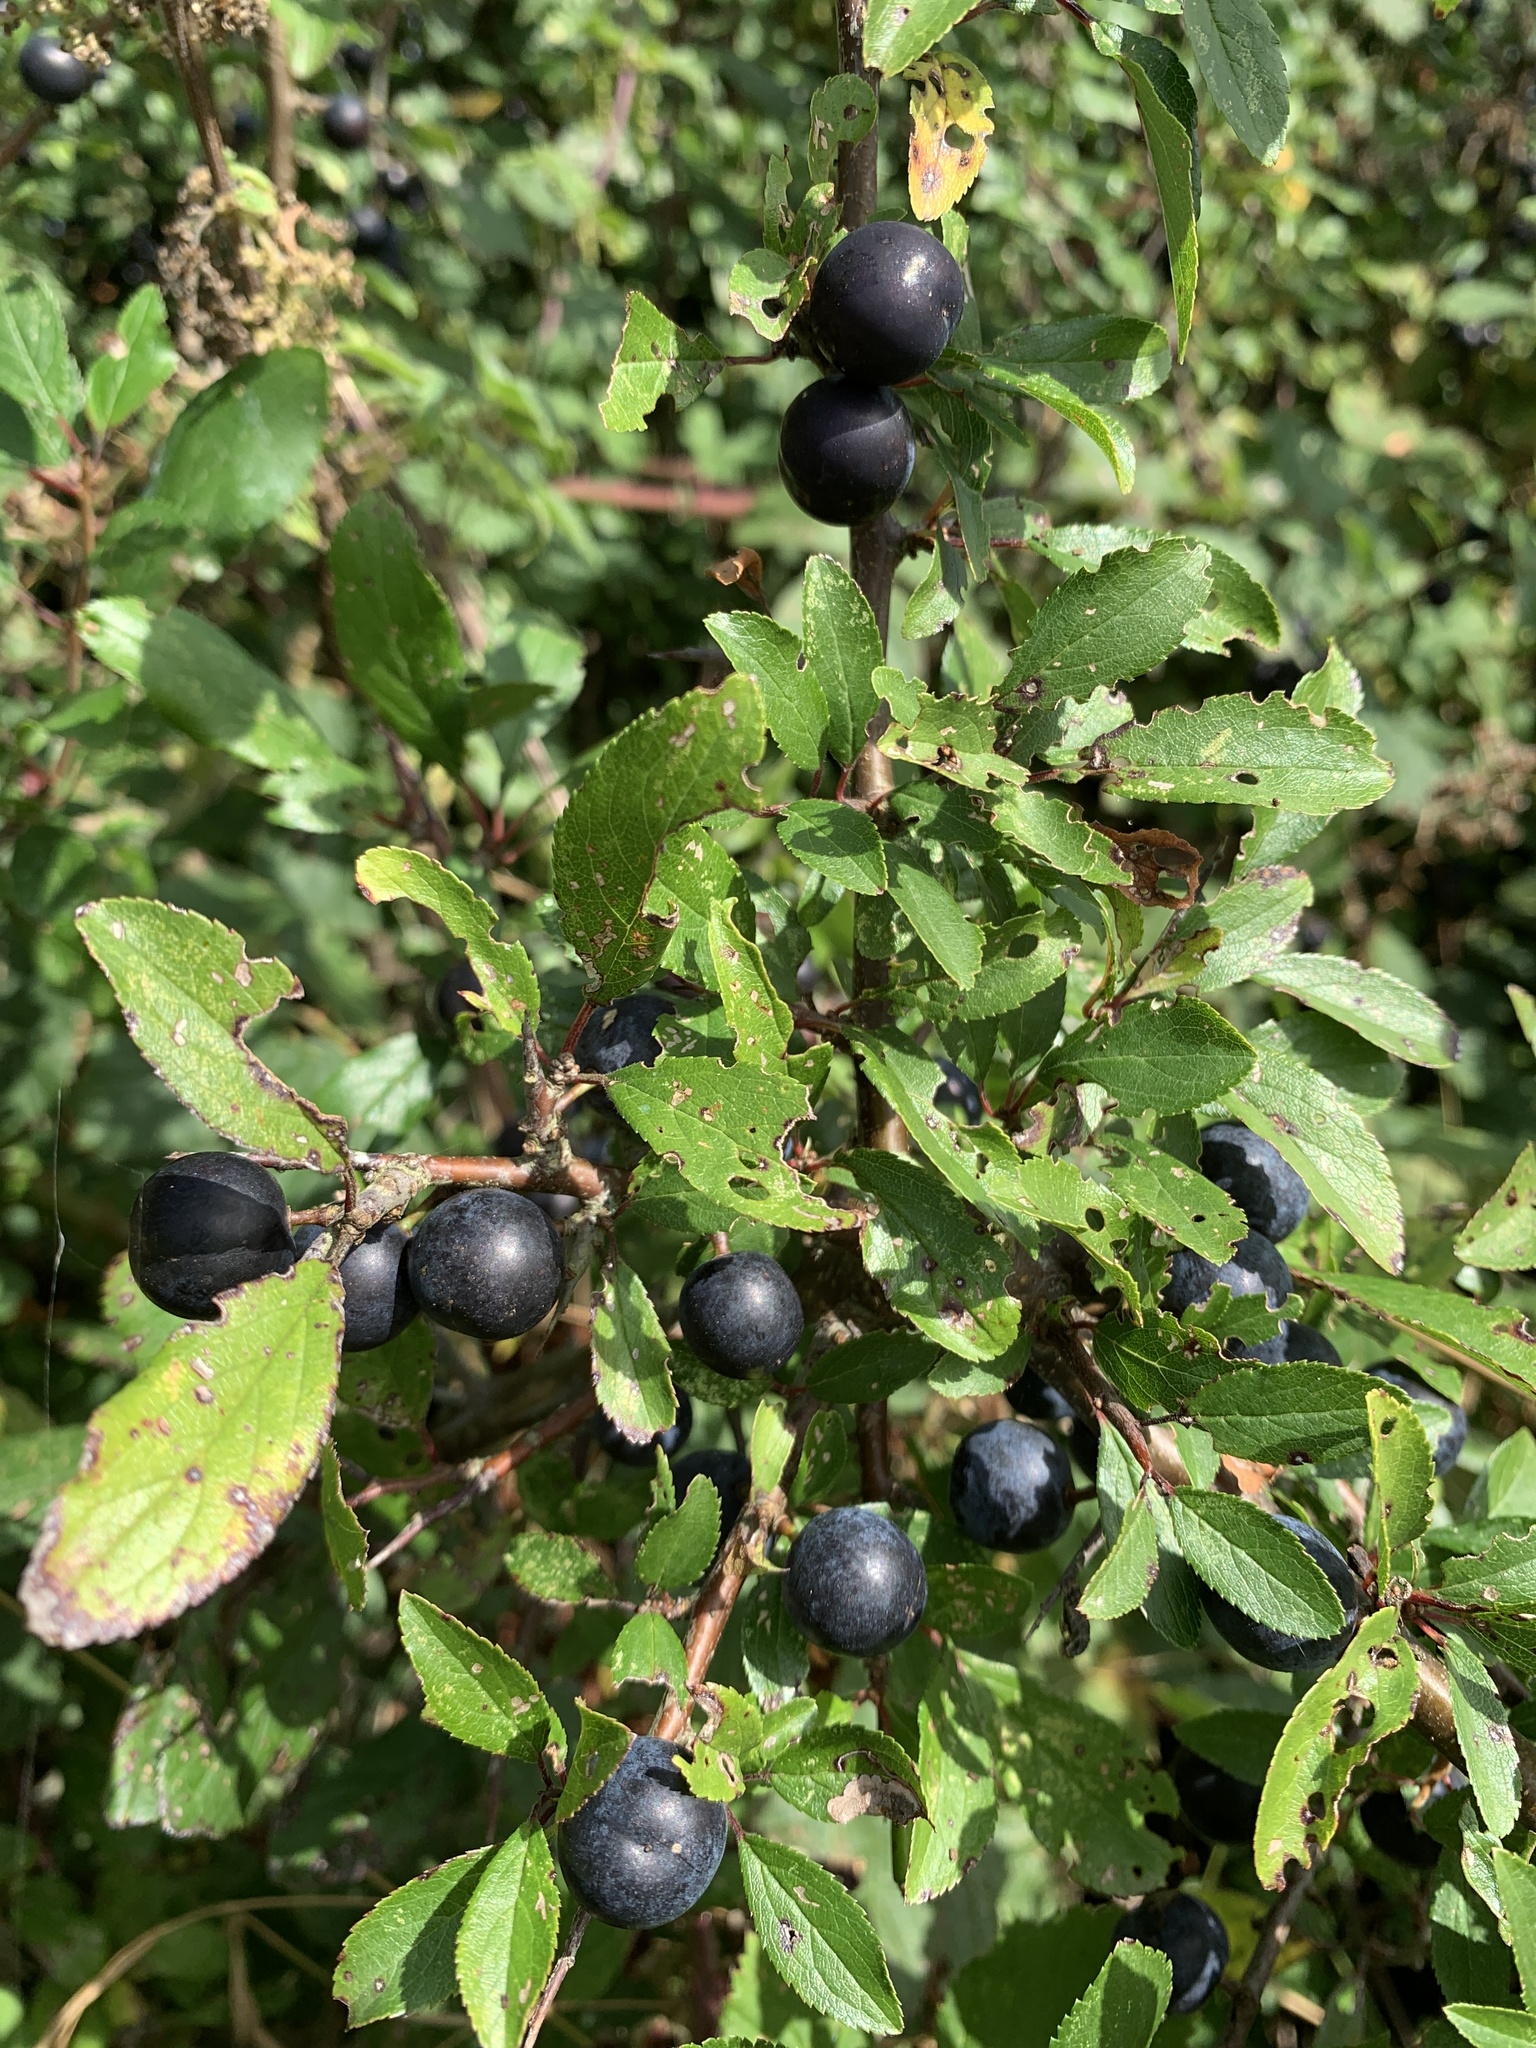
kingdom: Plantae
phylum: Tracheophyta
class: Magnoliopsida
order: Rosales
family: Rosaceae
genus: Prunus
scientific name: Prunus spinosa
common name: Blackthorn
